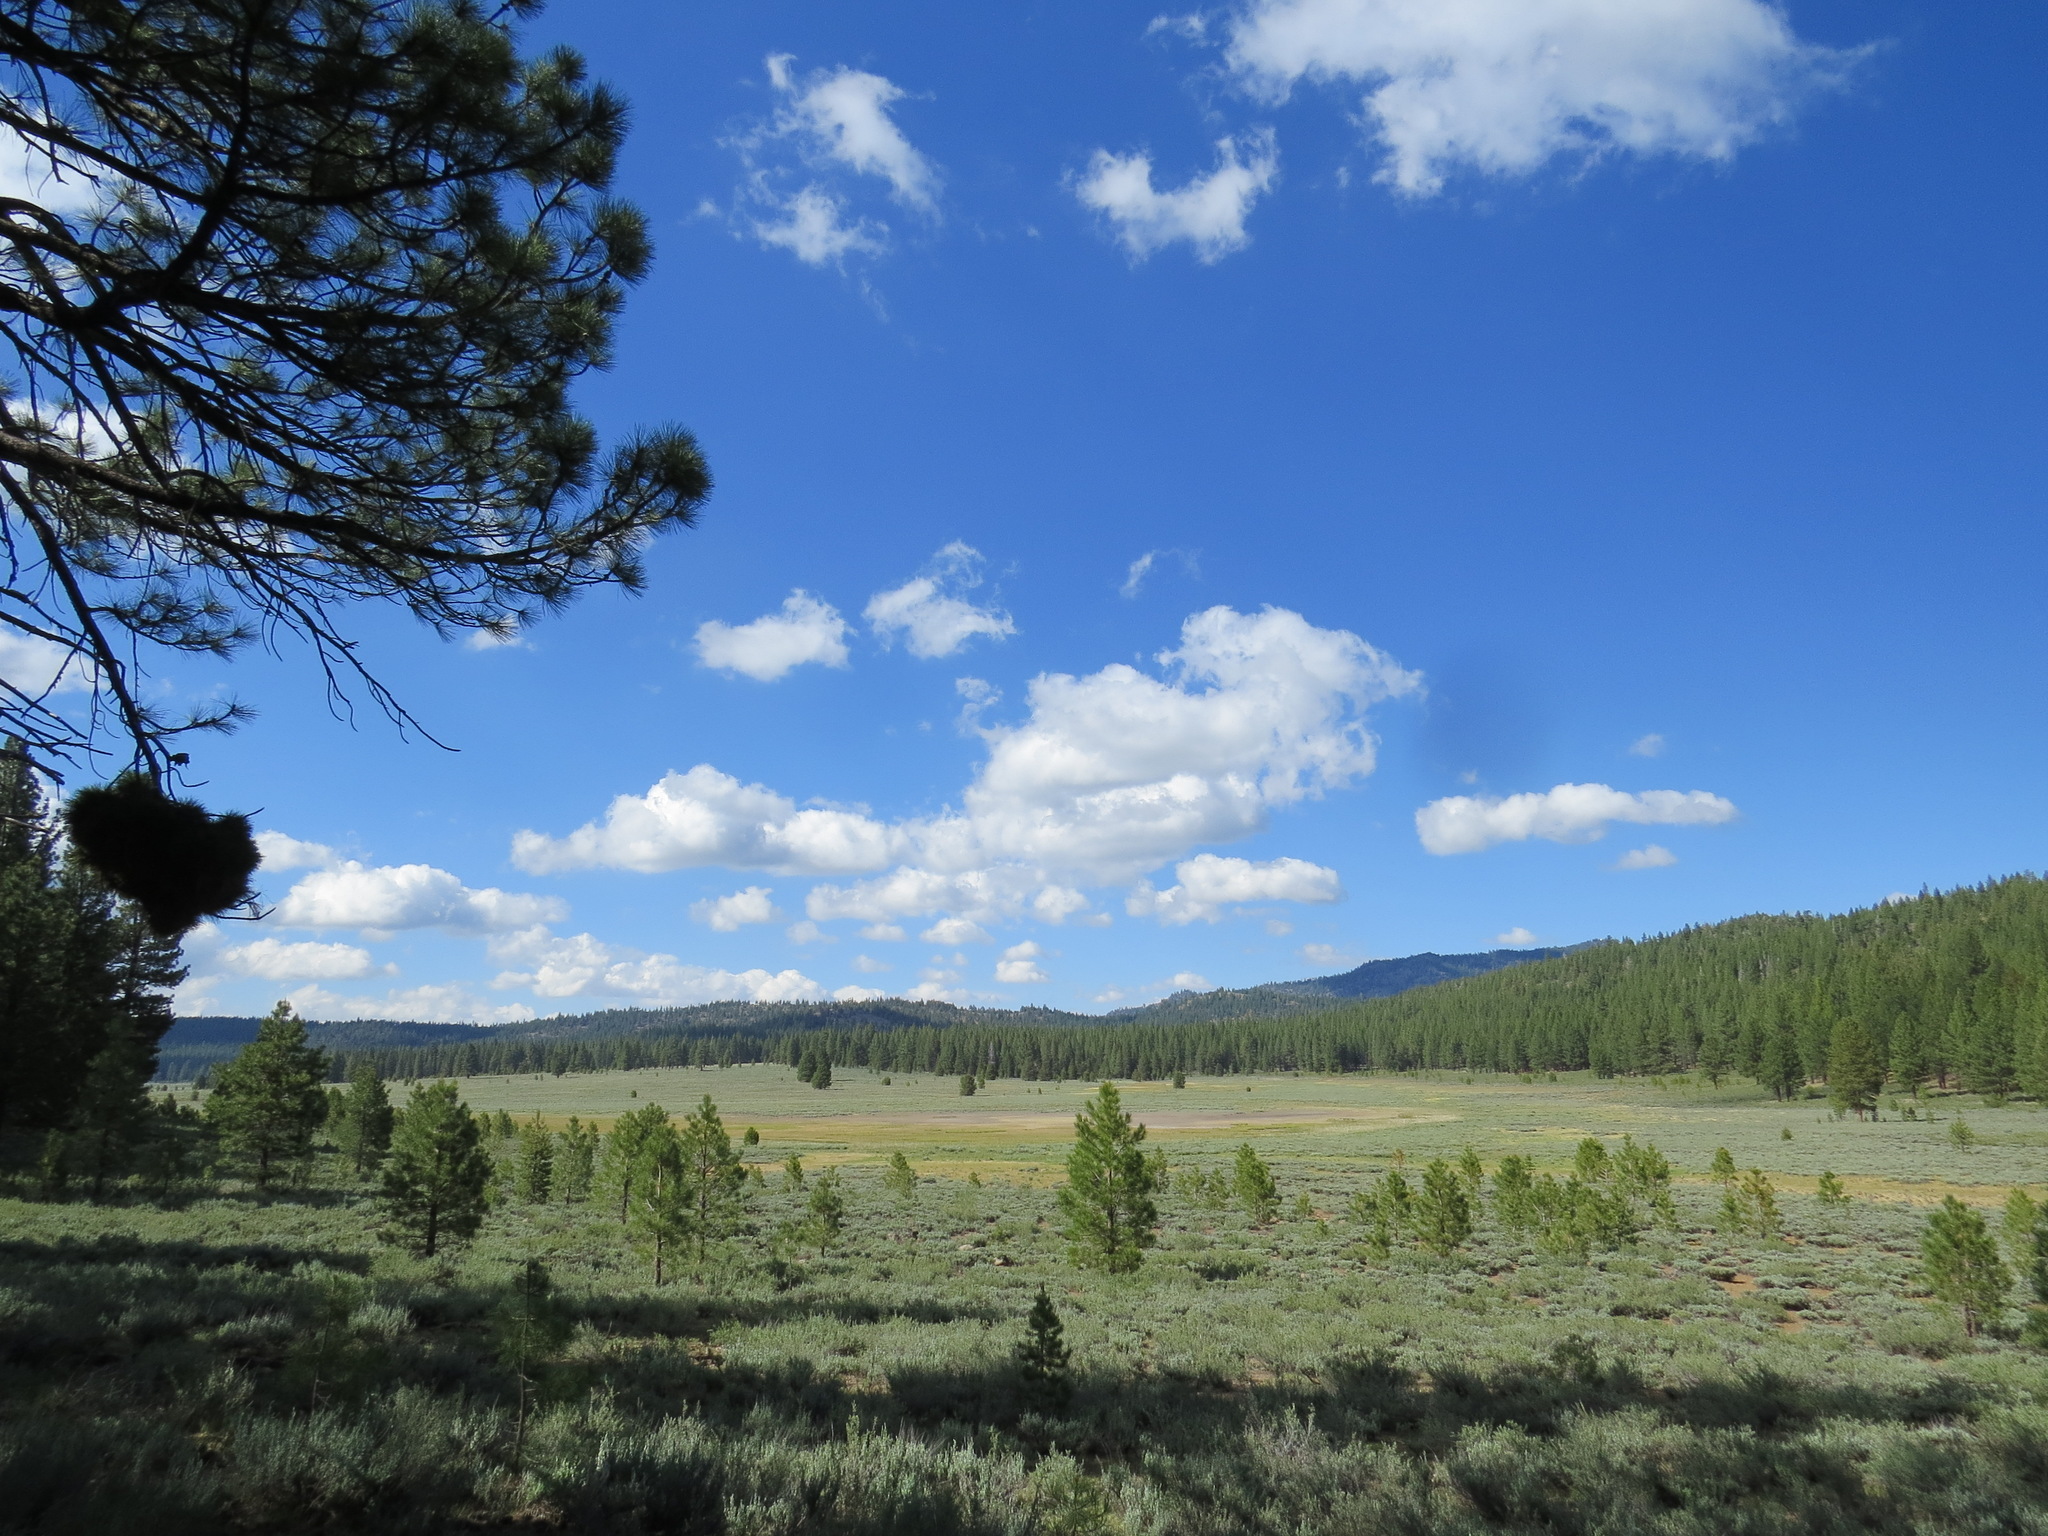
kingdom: Fungi
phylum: Basidiomycota
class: Pucciniomycetes
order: Pucciniales
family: Cronartiaceae
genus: Cronartium
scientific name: Cronartium harknessii
